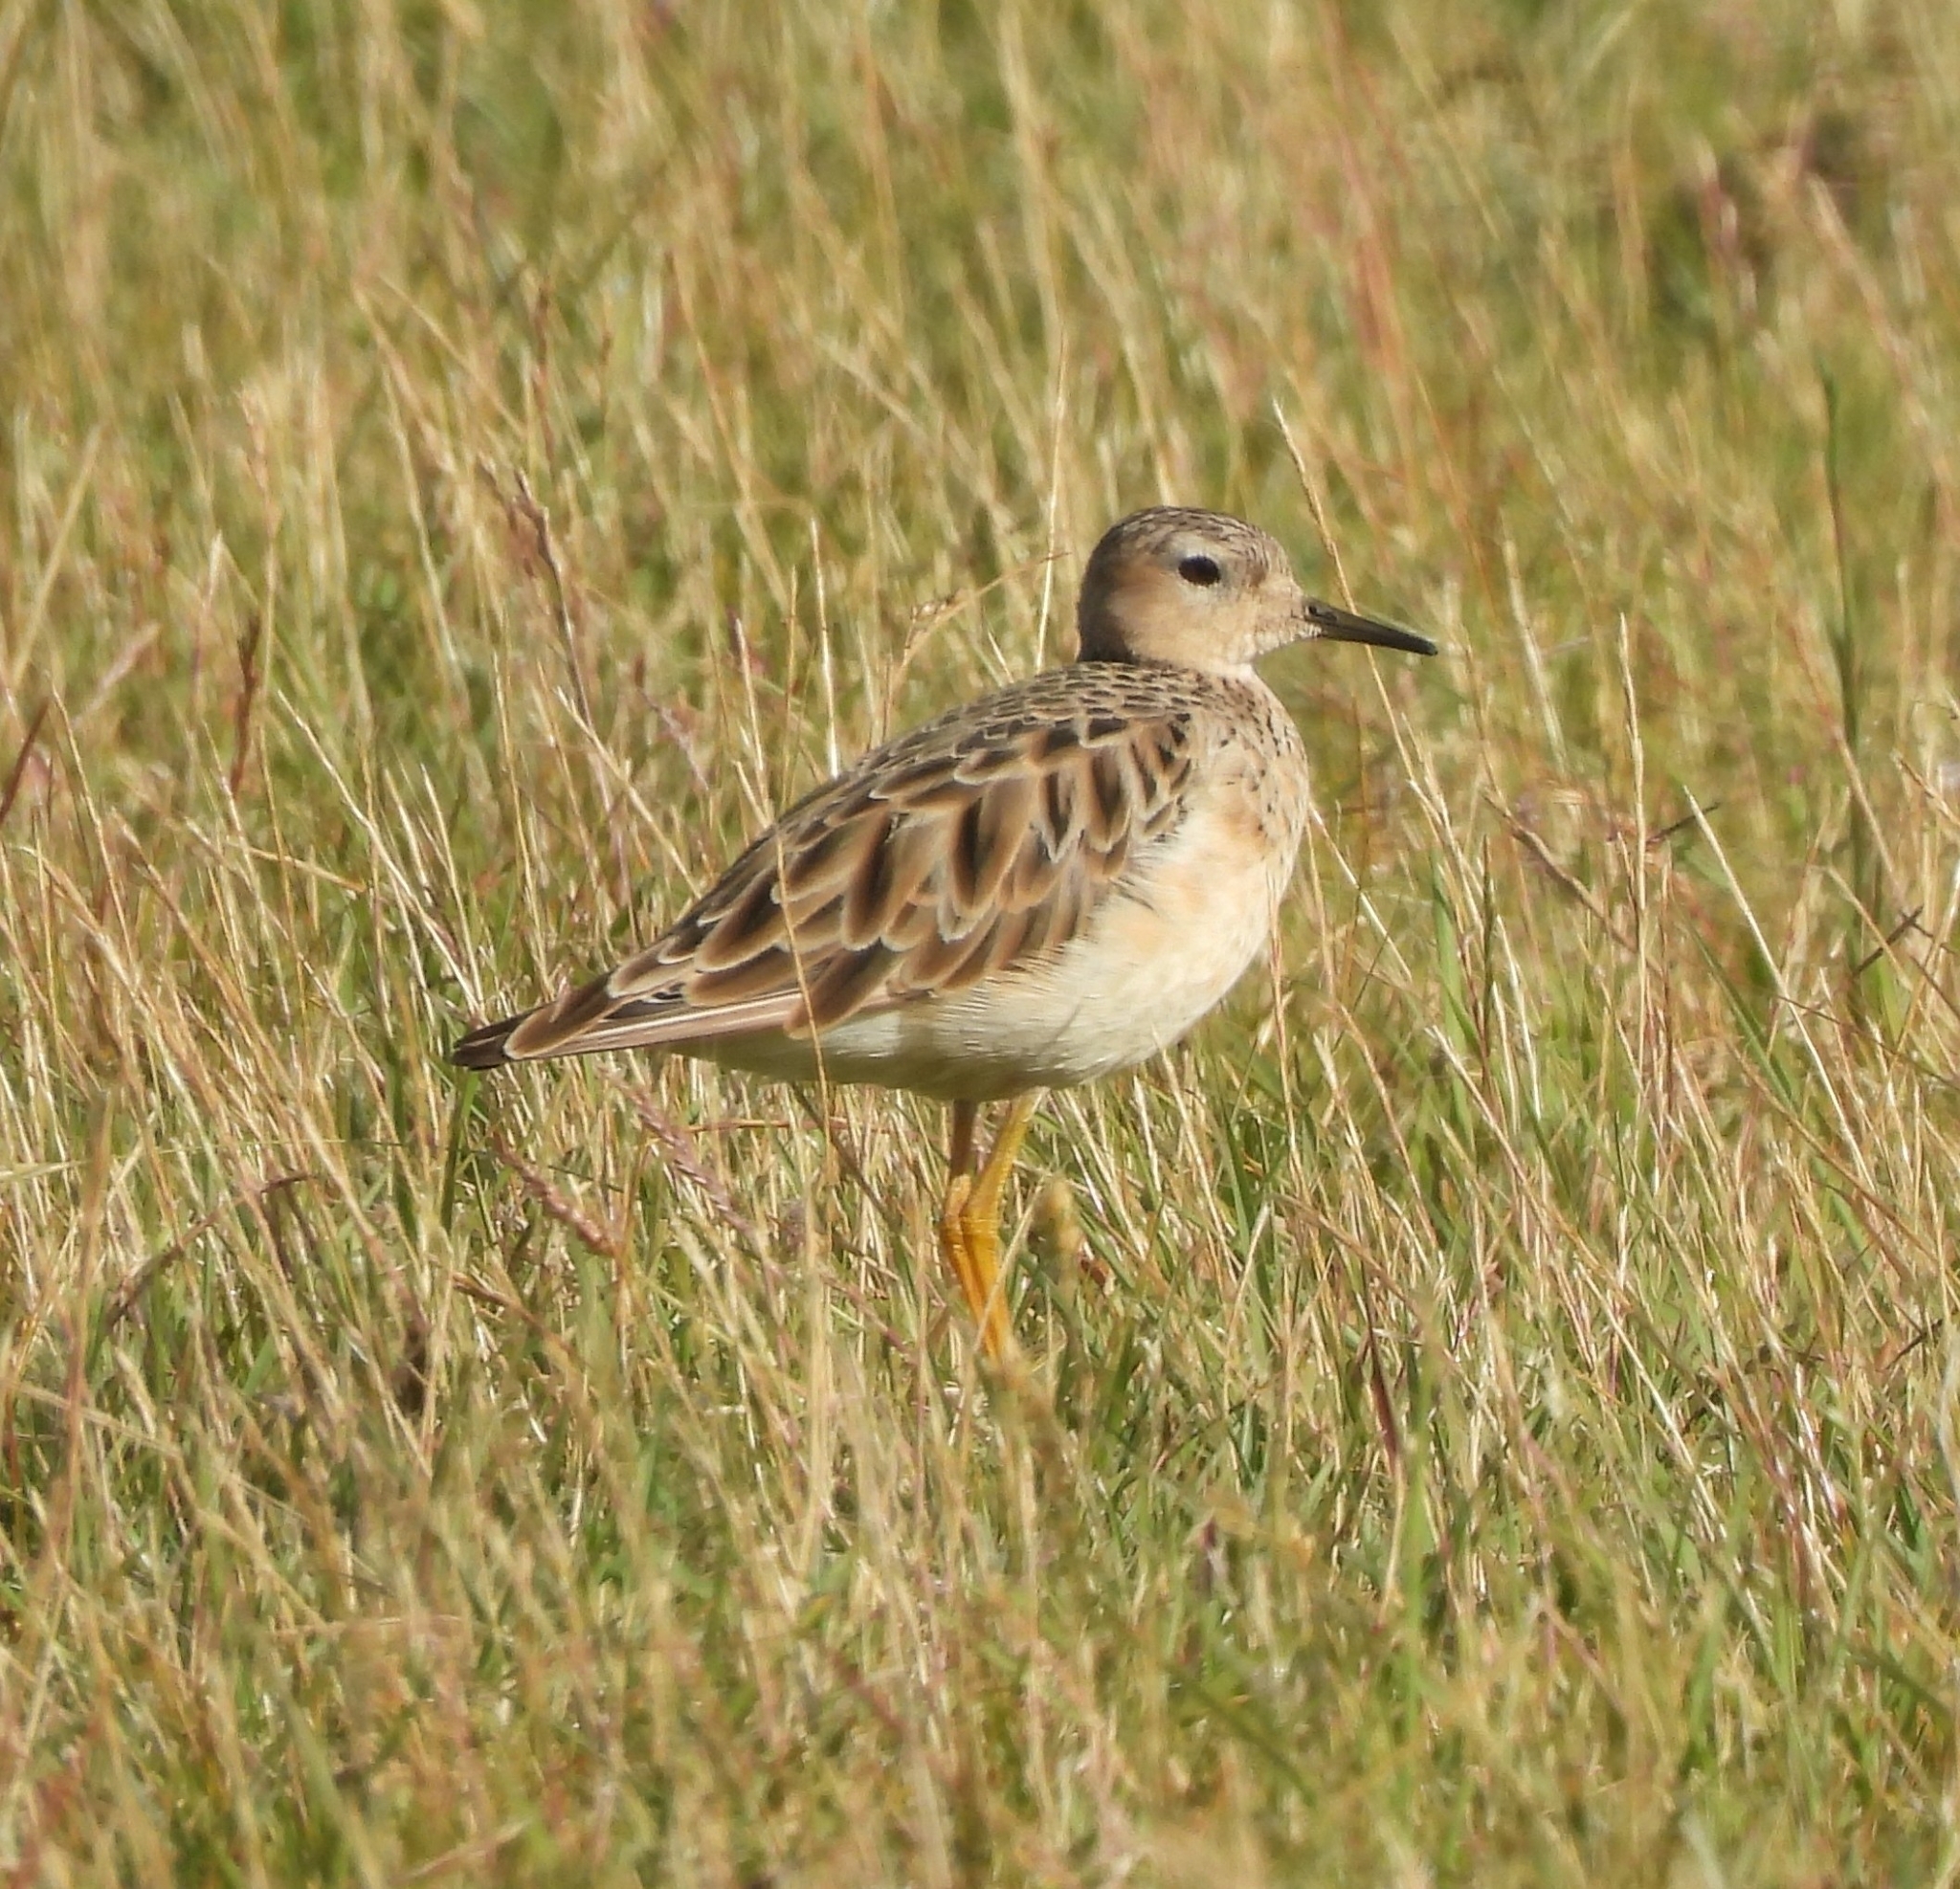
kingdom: Animalia
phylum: Chordata
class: Aves
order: Charadriiformes
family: Scolopacidae
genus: Calidris
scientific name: Calidris subruficollis
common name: Buff-breasted sandpiper
